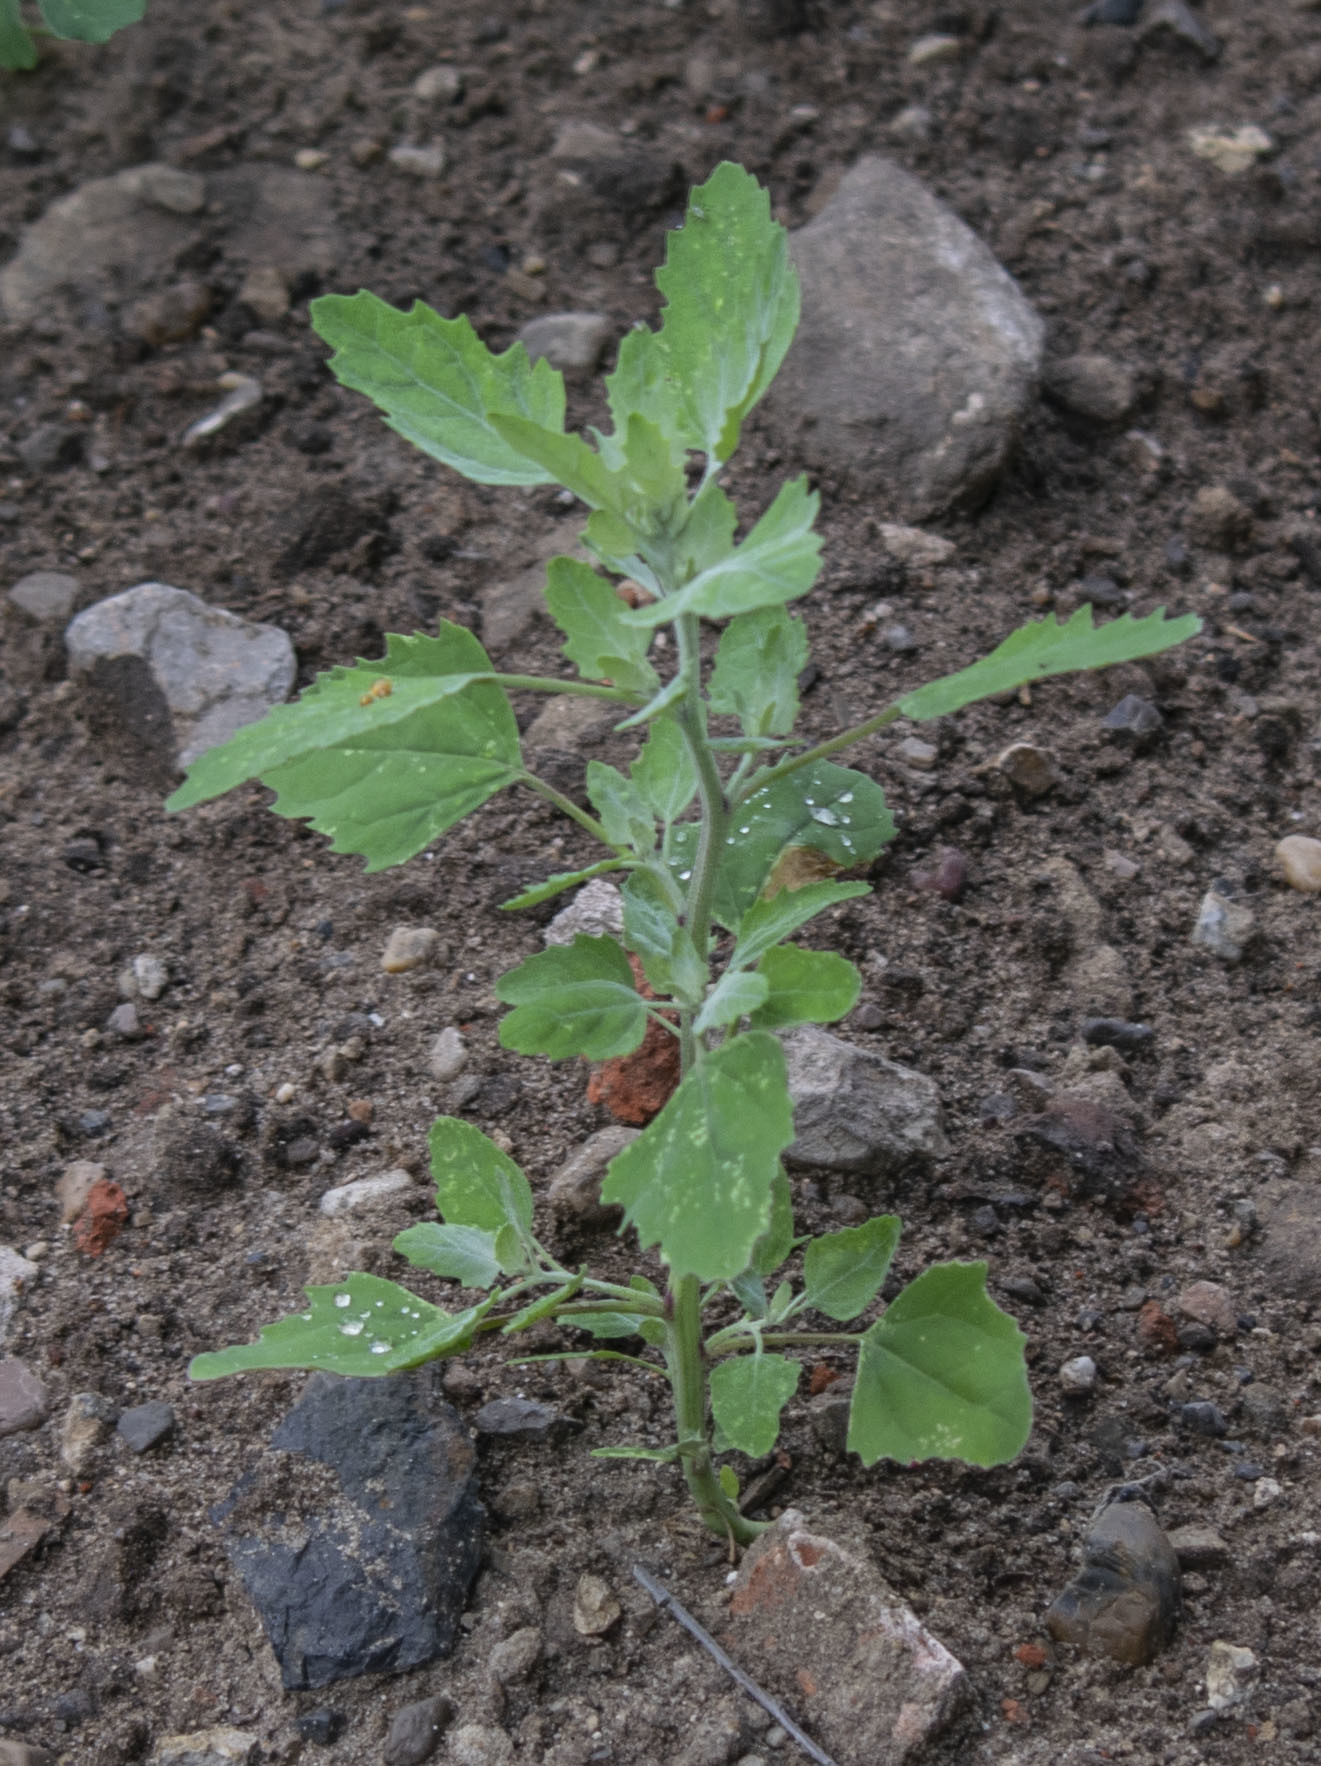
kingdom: Plantae
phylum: Tracheophyta
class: Magnoliopsida
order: Caryophyllales
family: Amaranthaceae
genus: Chenopodium
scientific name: Chenopodium album
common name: Fat-hen
